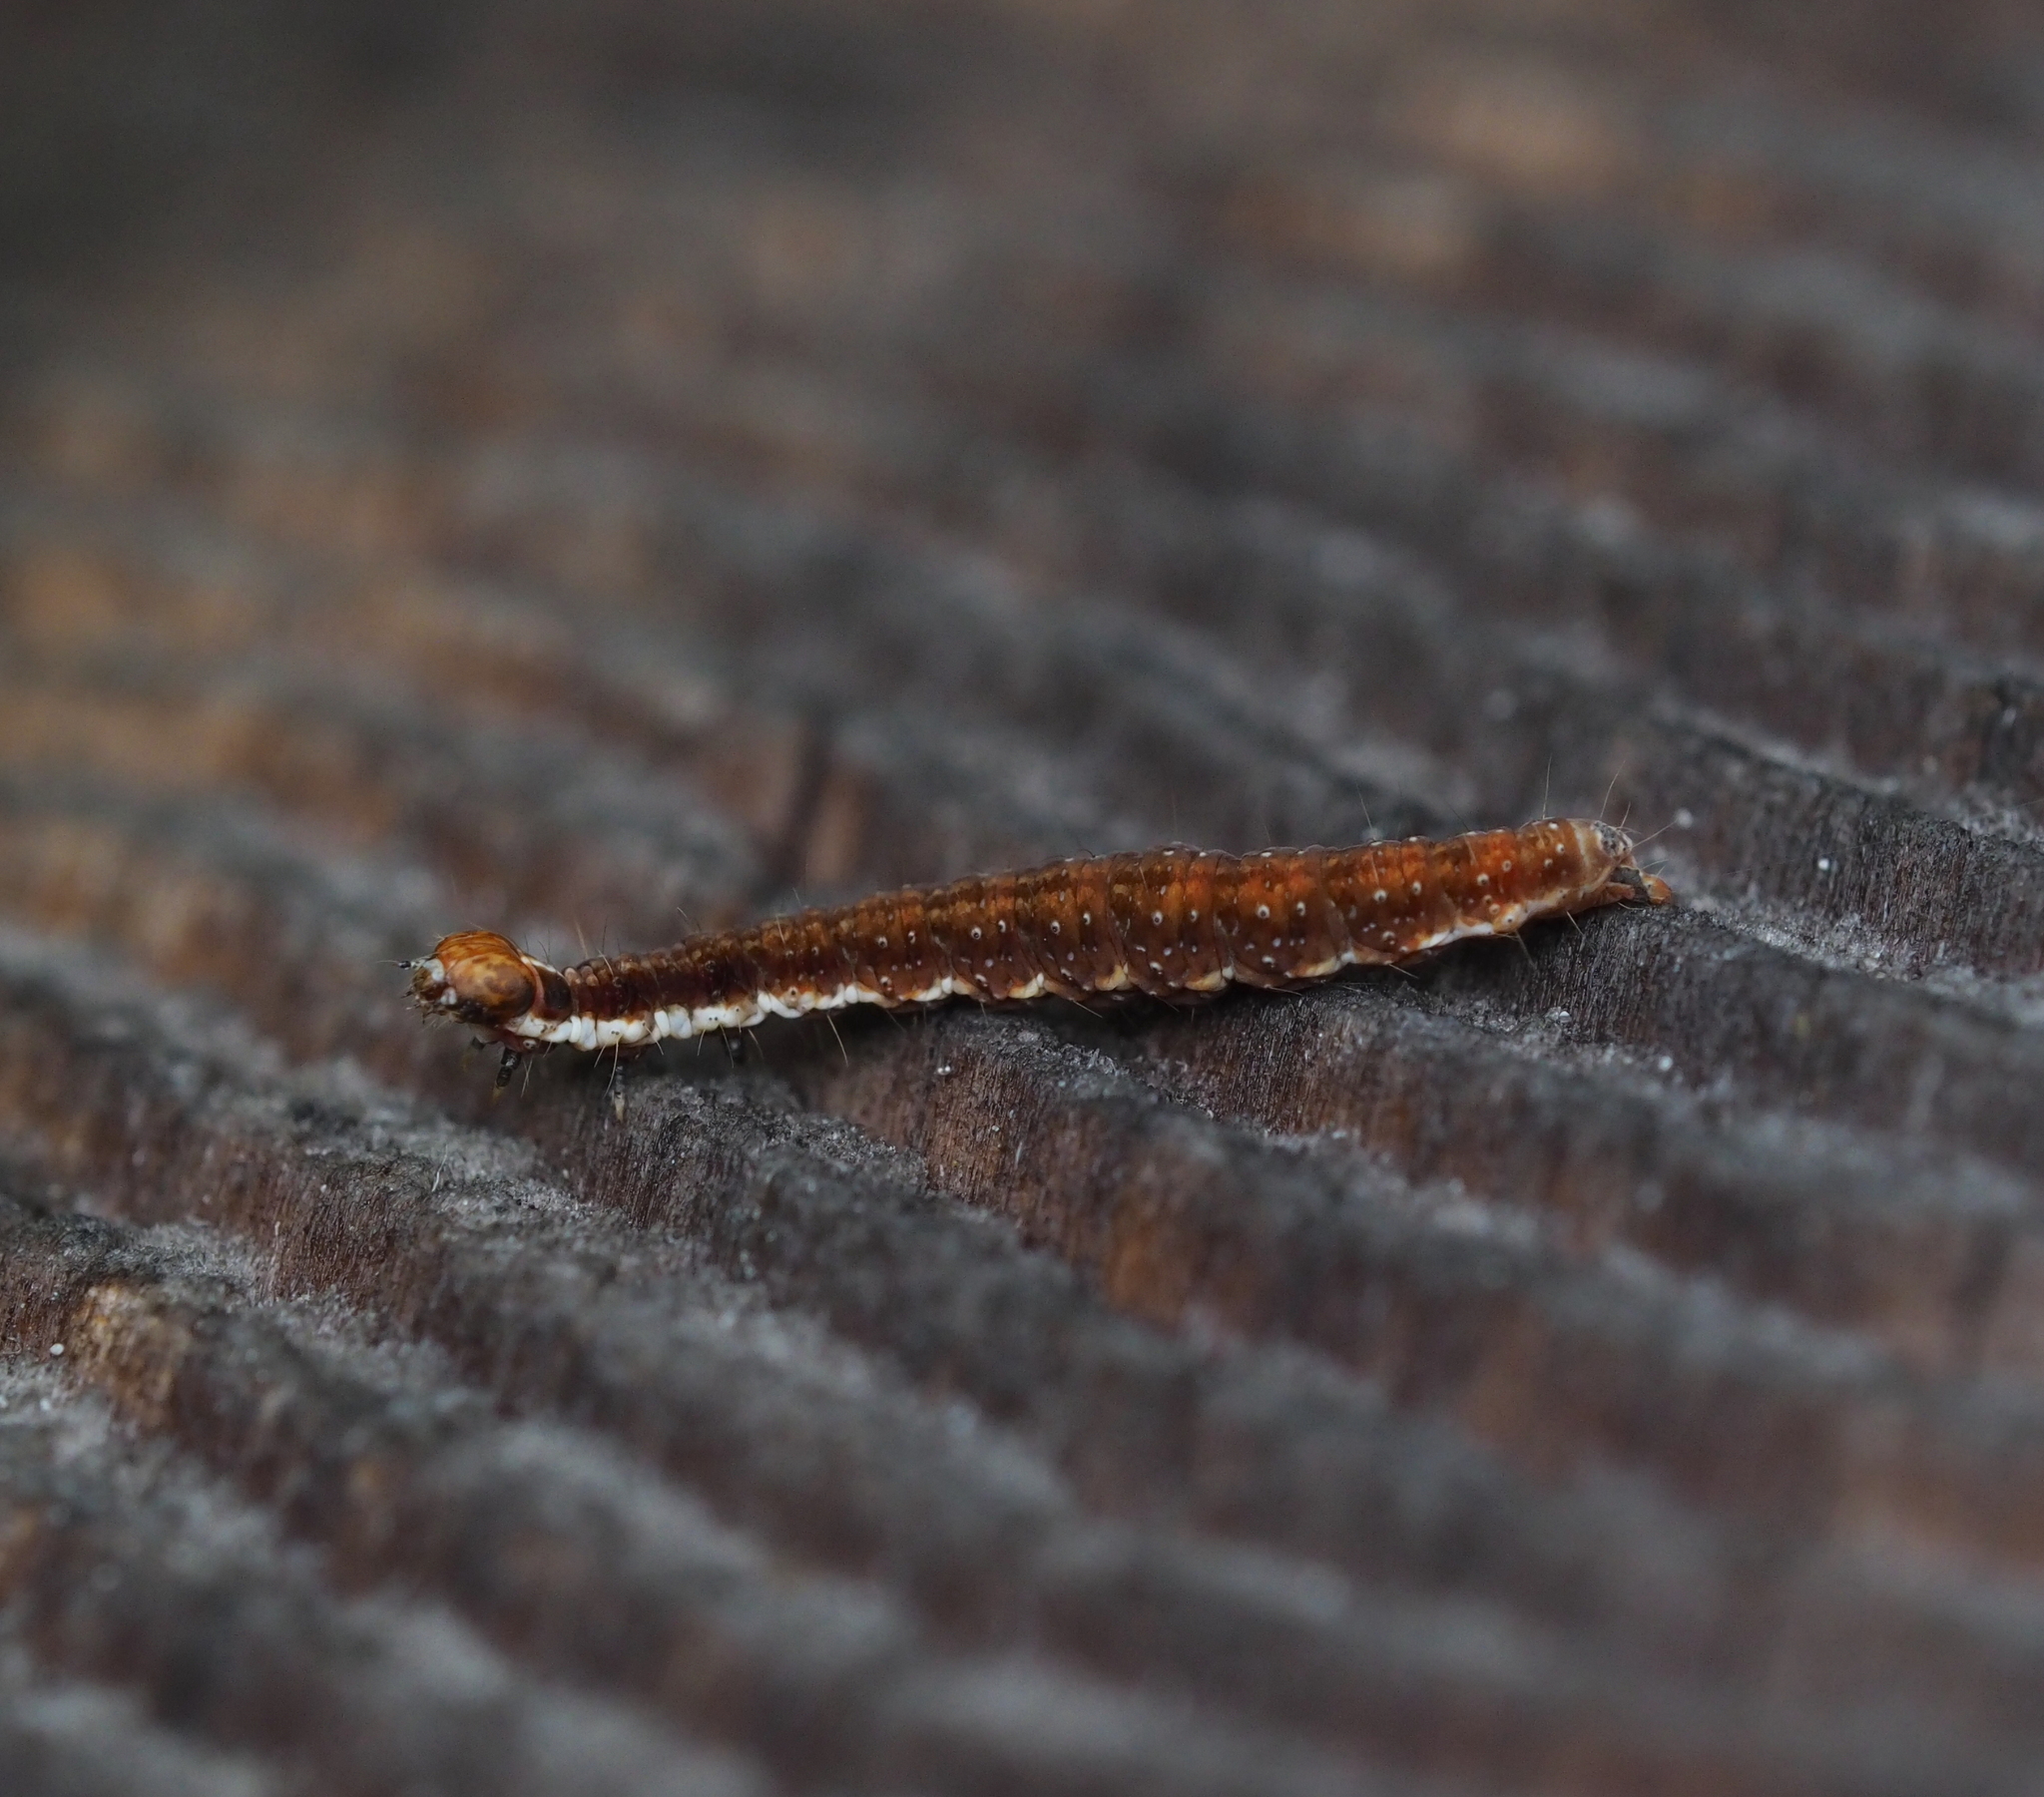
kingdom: Animalia
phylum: Arthropoda
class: Insecta
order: Lepidoptera
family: Yponomeutidae
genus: Paraswammerdamia
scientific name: Paraswammerdamia lutarea
